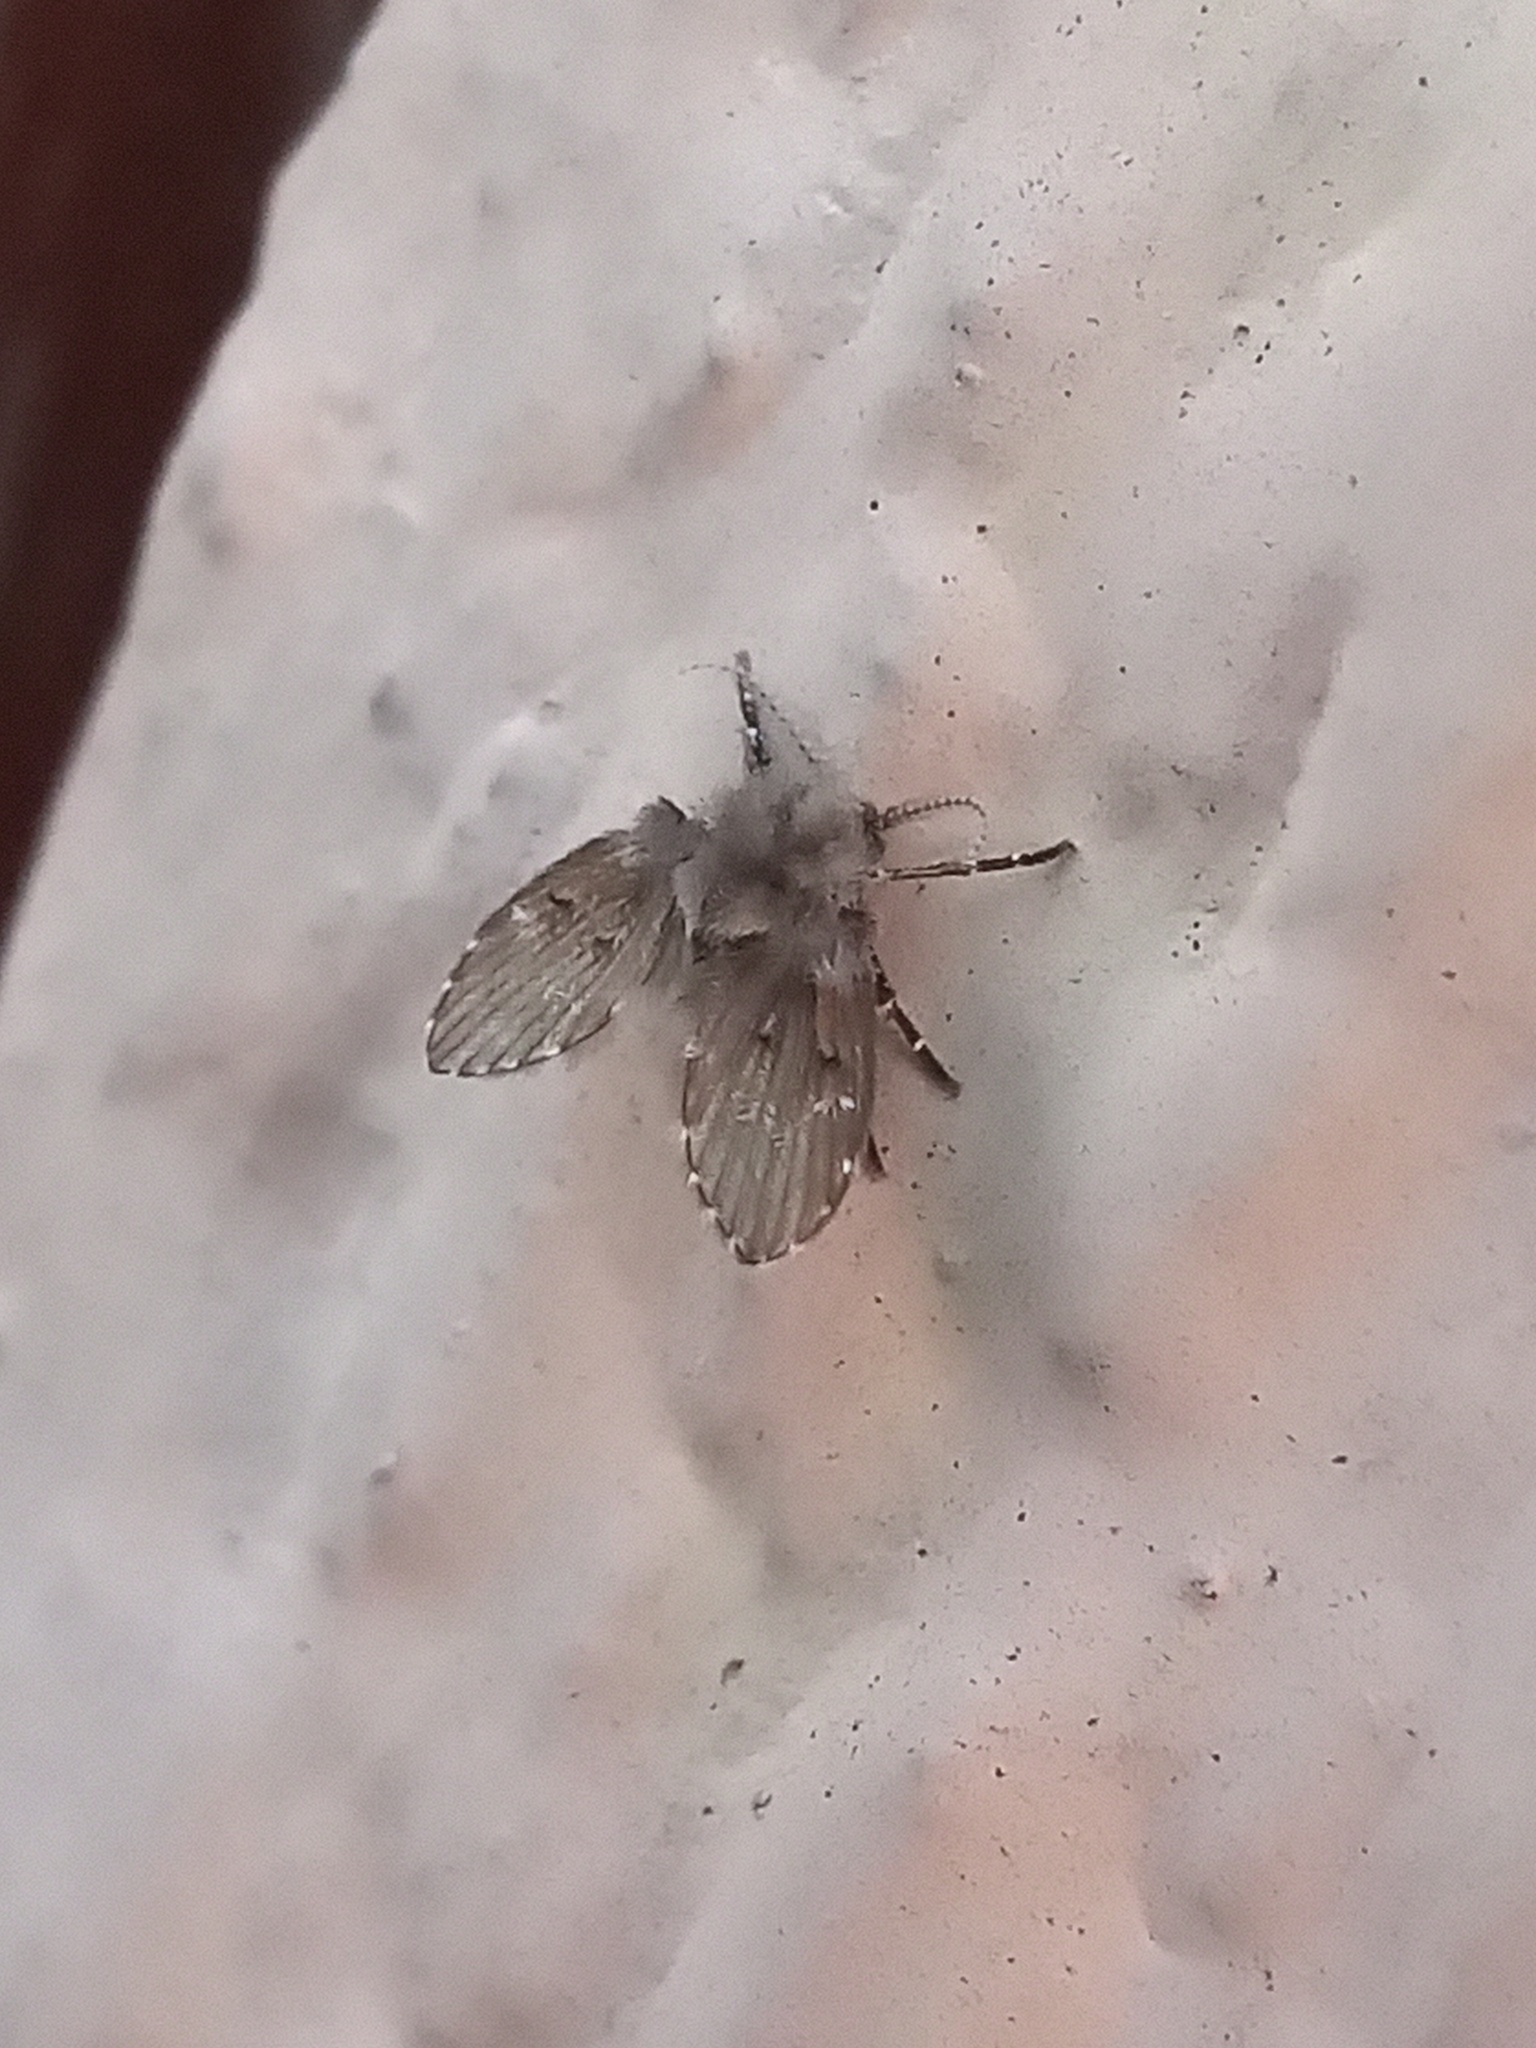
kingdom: Animalia
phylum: Arthropoda
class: Insecta
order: Diptera
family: Psychodidae
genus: Clogmia
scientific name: Clogmia albipunctatus
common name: White-spotted moth fly
